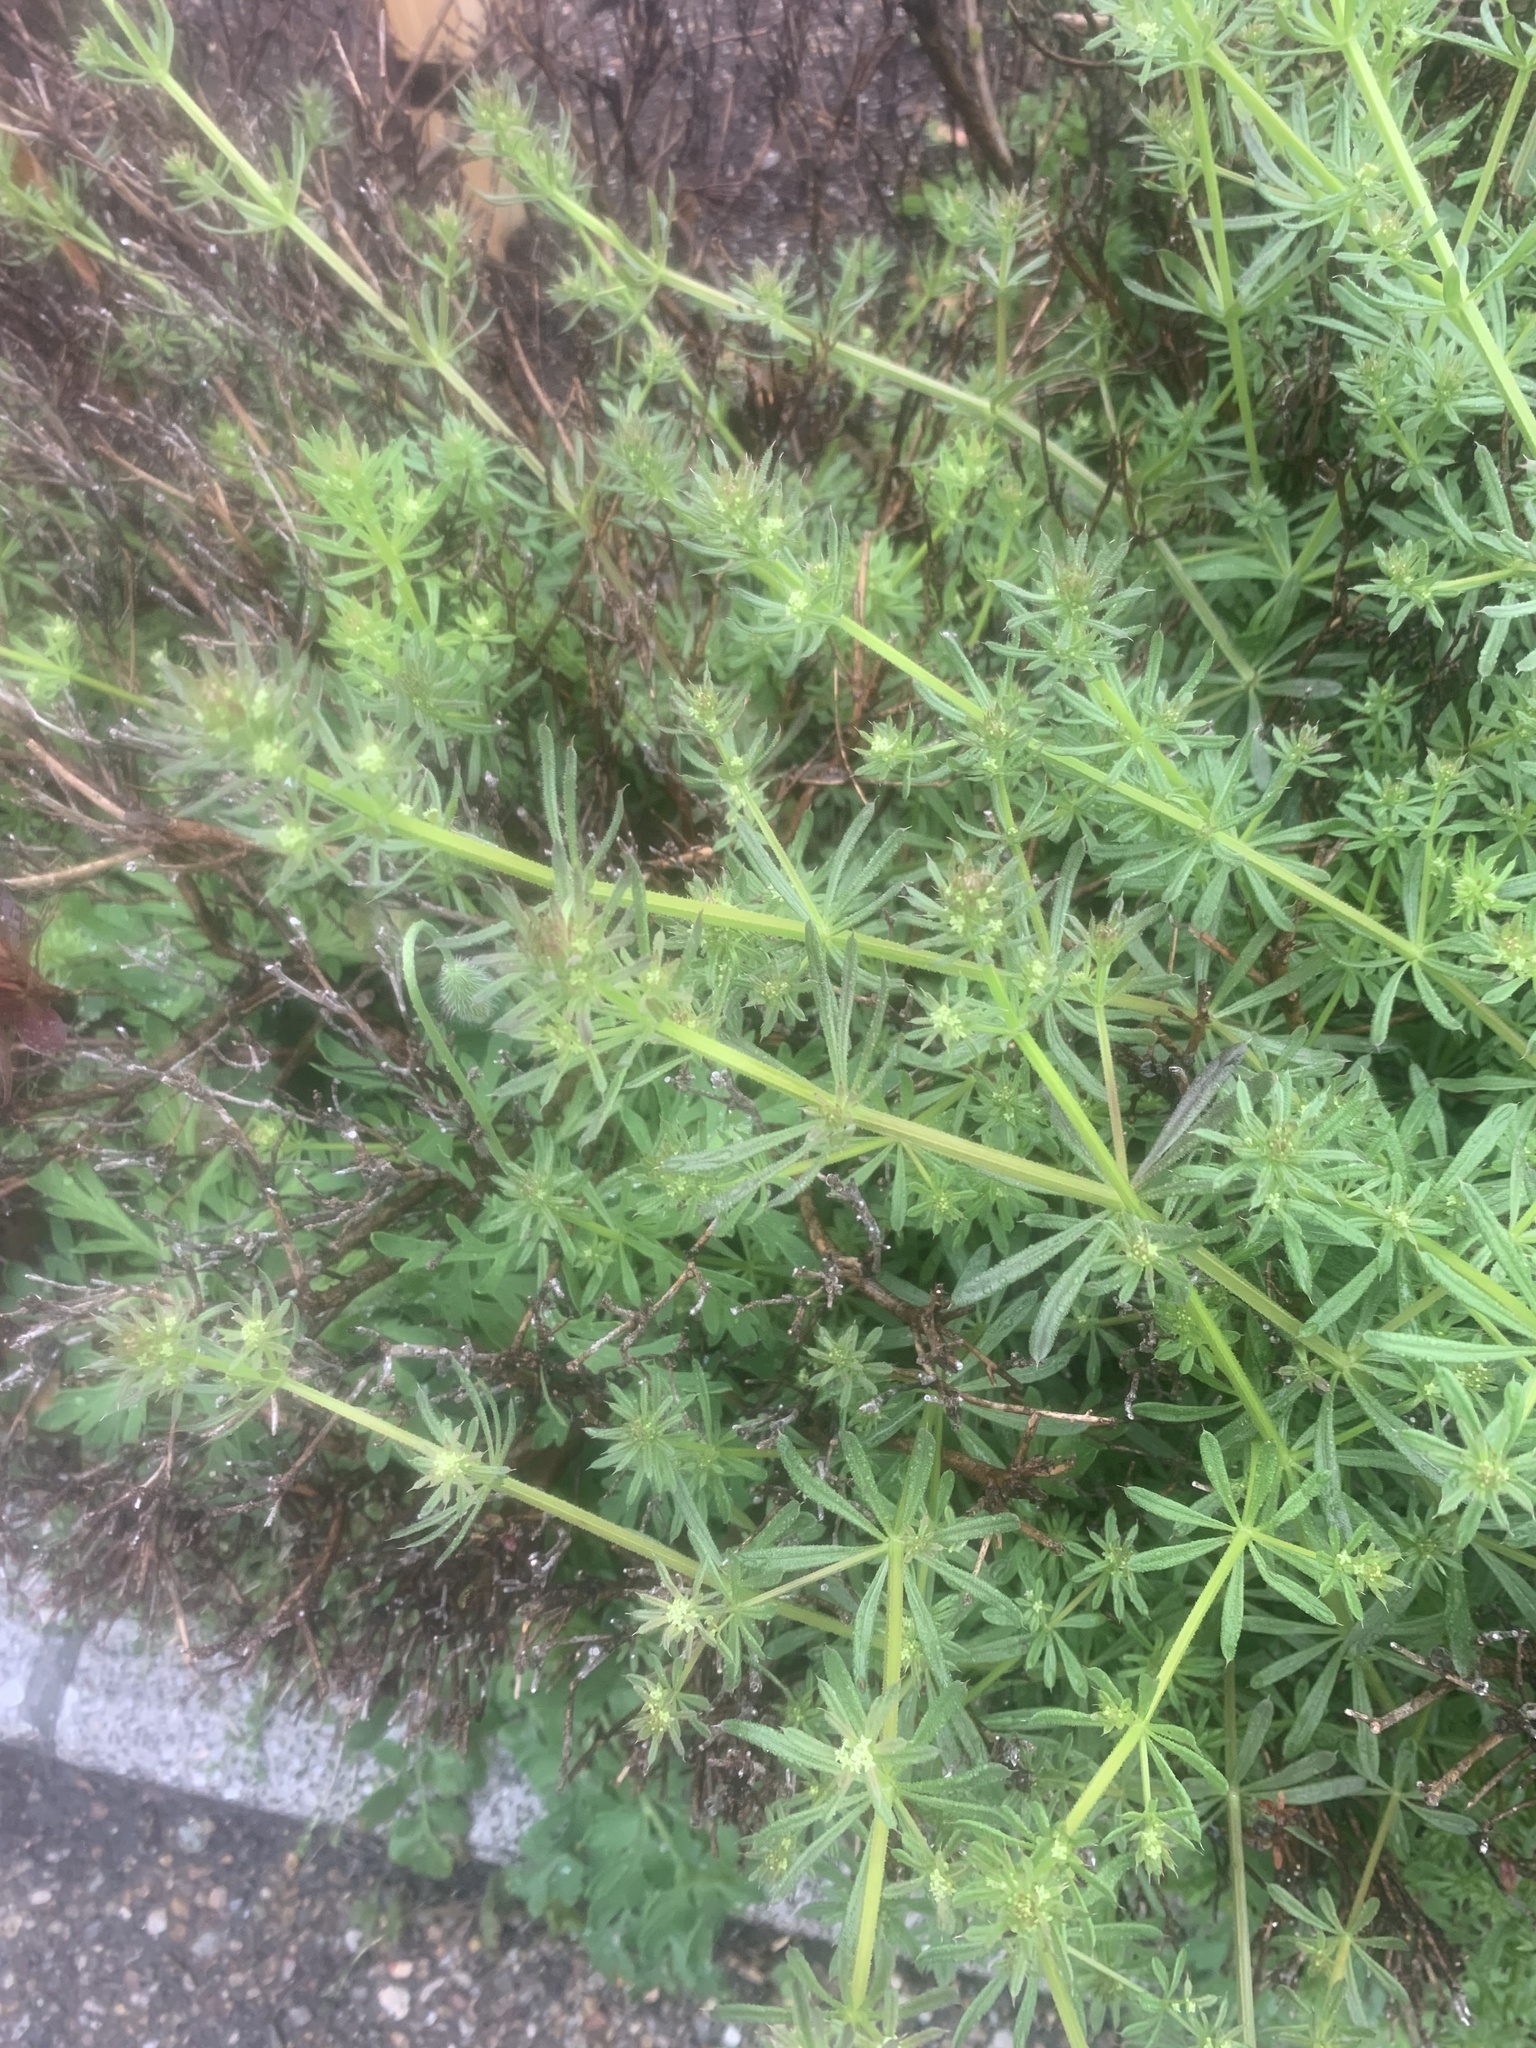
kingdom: Plantae
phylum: Tracheophyta
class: Magnoliopsida
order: Gentianales
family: Rubiaceae
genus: Galium
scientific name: Galium
